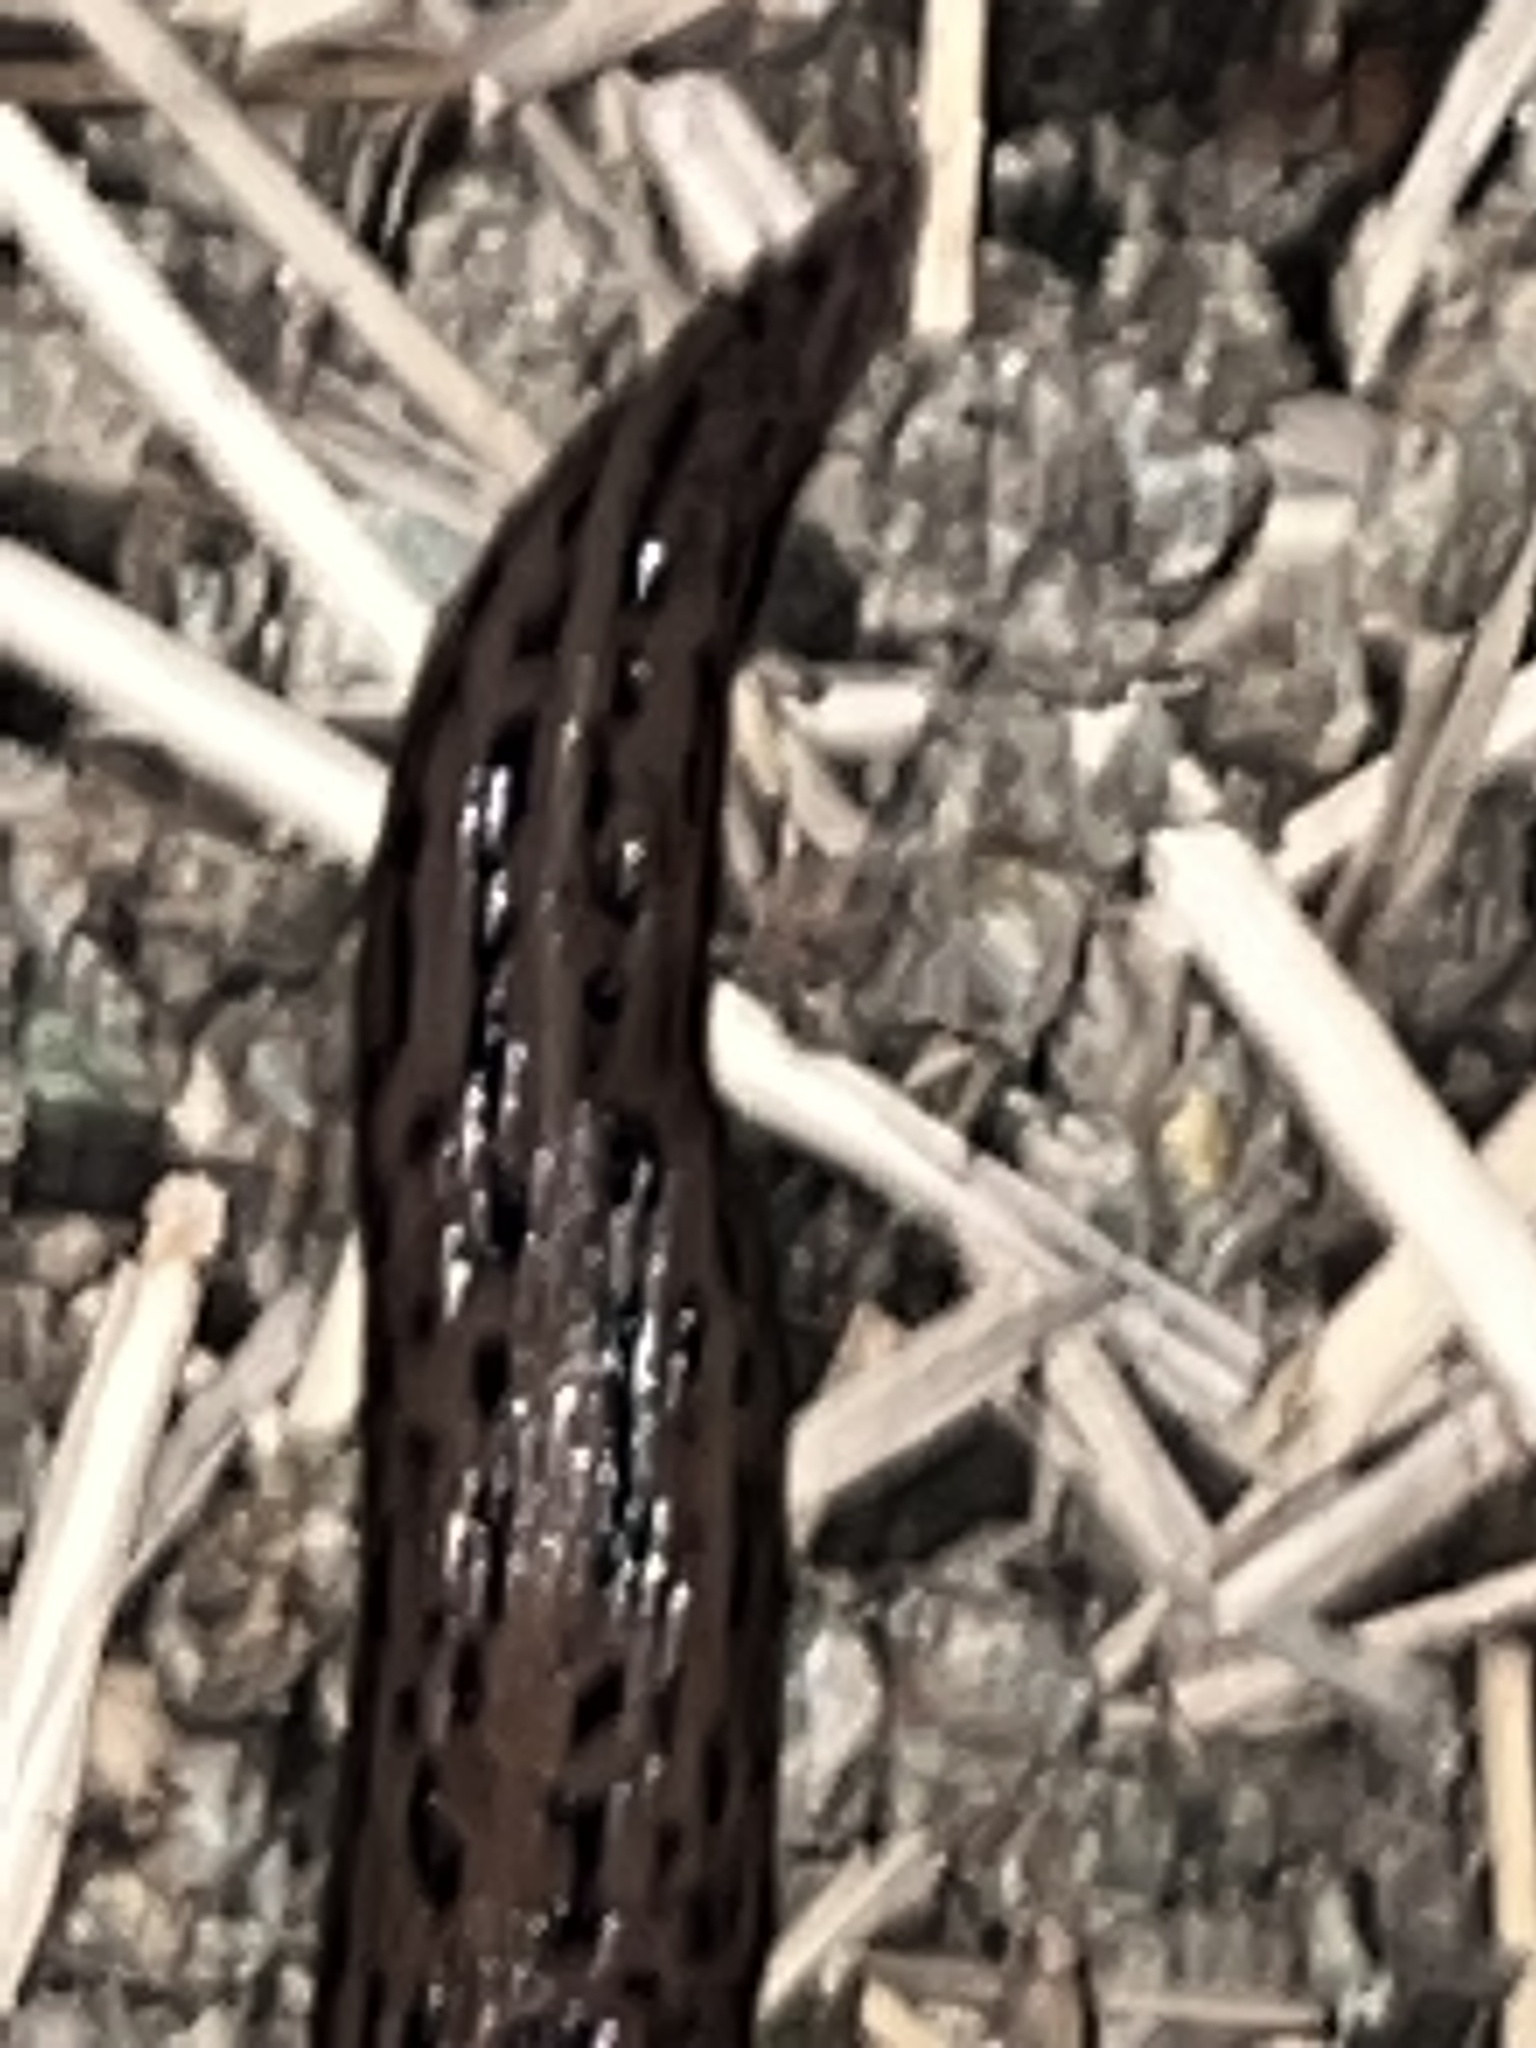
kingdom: Animalia
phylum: Mollusca
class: Gastropoda
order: Stylommatophora
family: Limacidae
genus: Limax
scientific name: Limax maximus
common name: Great grey slug
